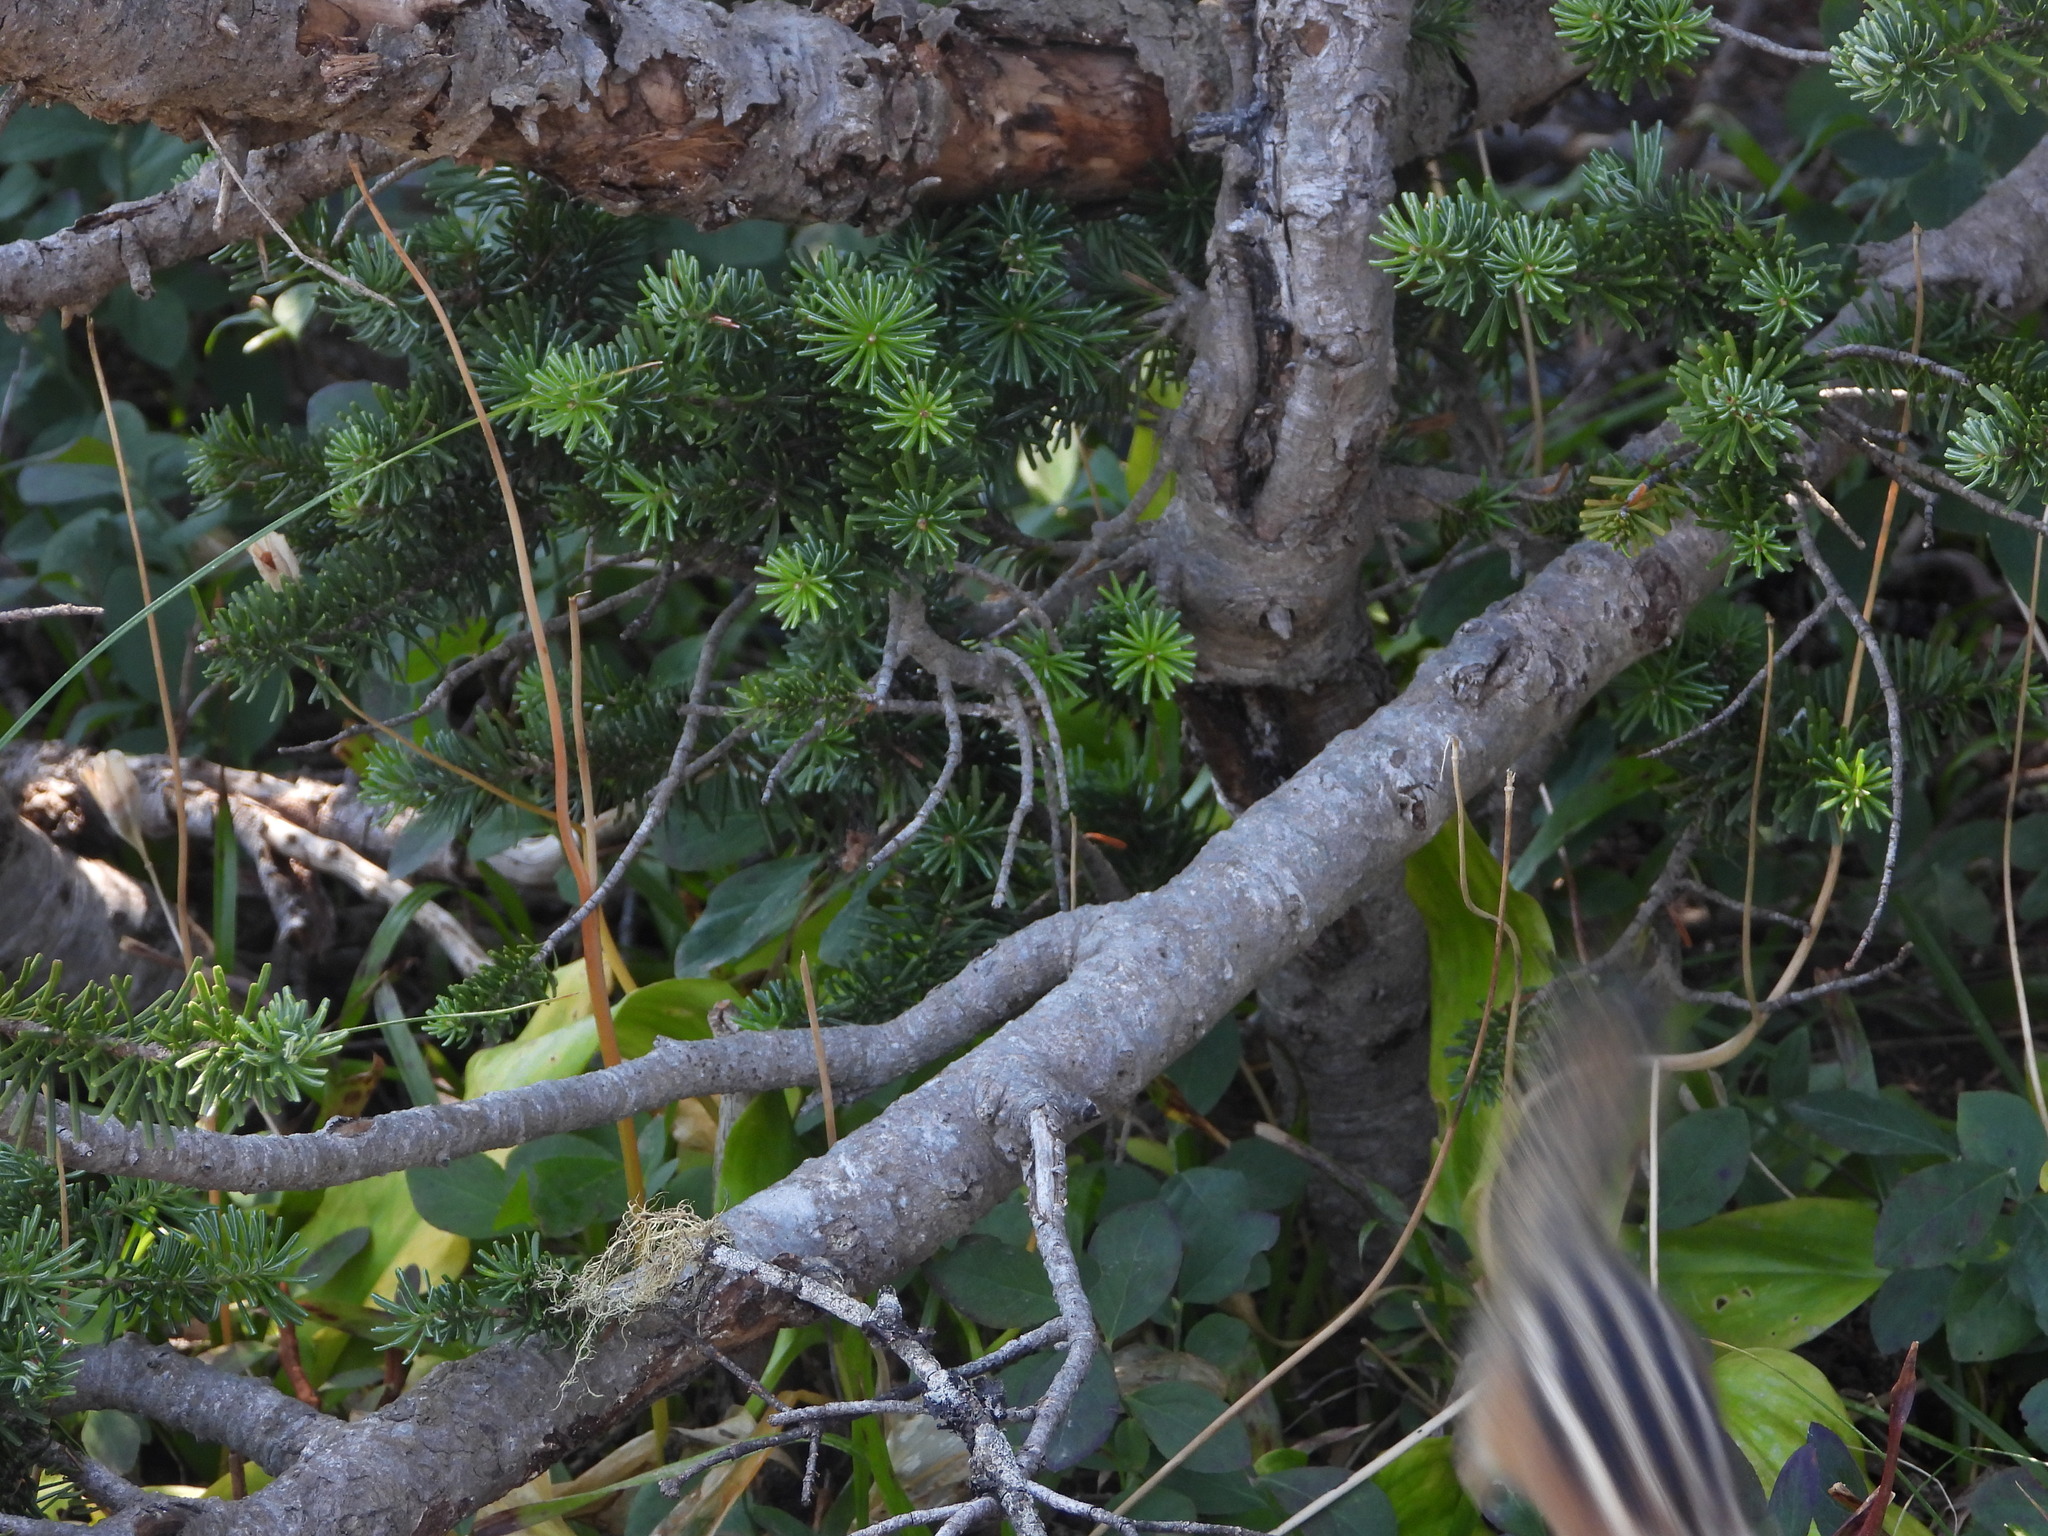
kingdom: Plantae
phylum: Tracheophyta
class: Pinopsida
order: Pinales
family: Pinaceae
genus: Tsuga
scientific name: Tsuga mertensiana
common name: Mountain hemlock
